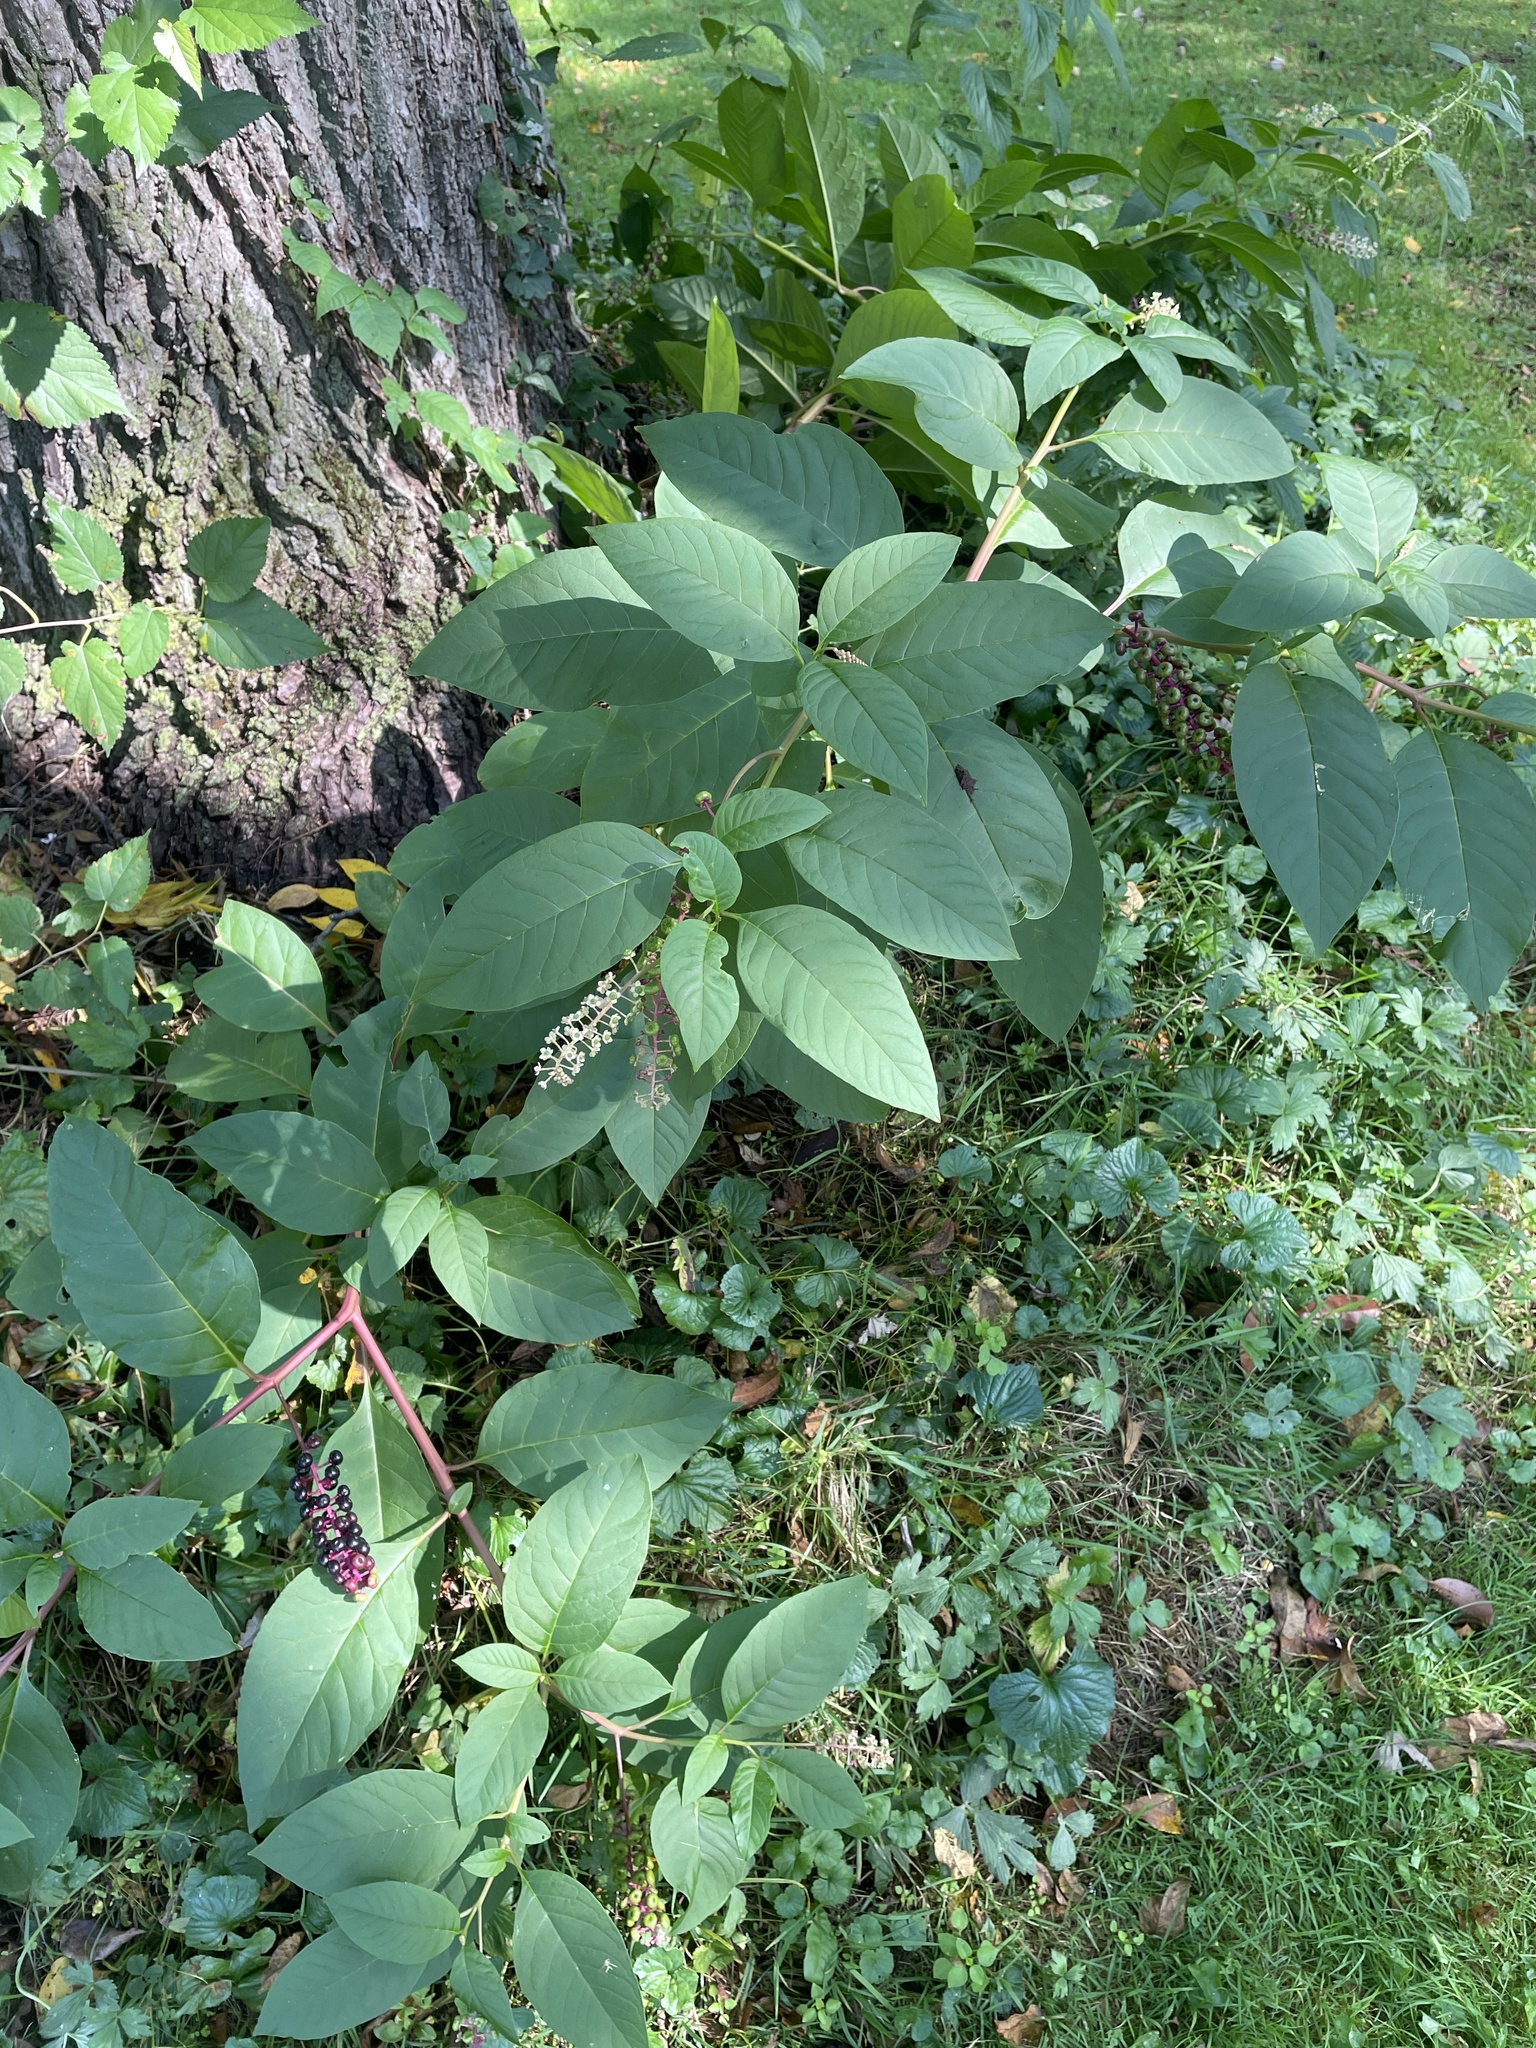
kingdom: Plantae
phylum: Tracheophyta
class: Magnoliopsida
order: Caryophyllales
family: Phytolaccaceae
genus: Phytolacca
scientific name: Phytolacca americana
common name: American pokeweed
